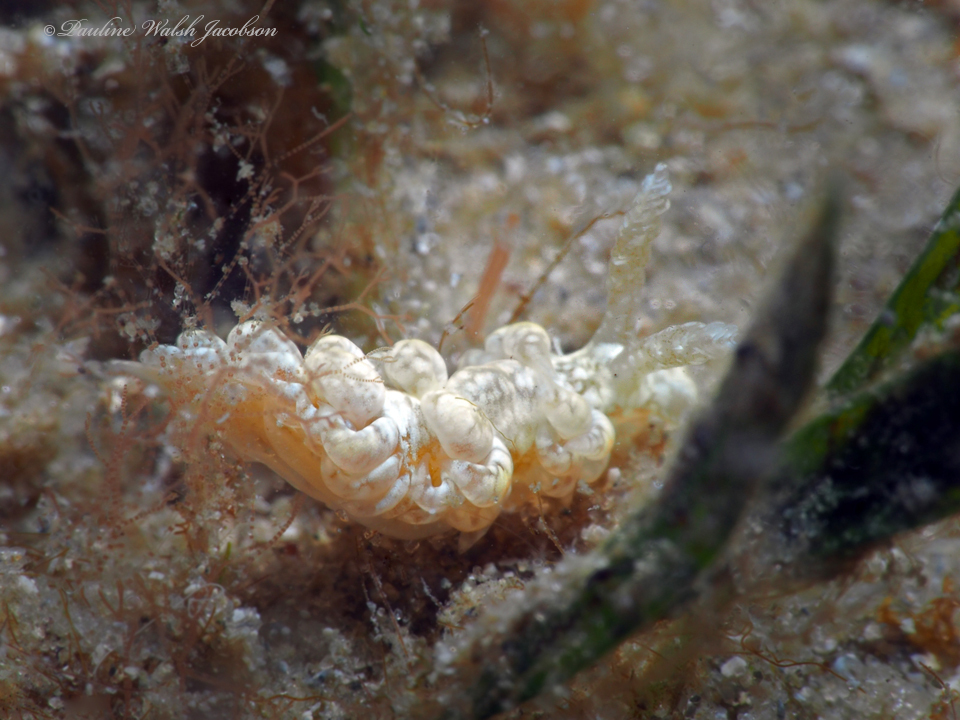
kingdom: Animalia
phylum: Mollusca
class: Gastropoda
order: Nudibranchia
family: Aeolidiidae
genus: Spurilla
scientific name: Spurilla sargassicola
